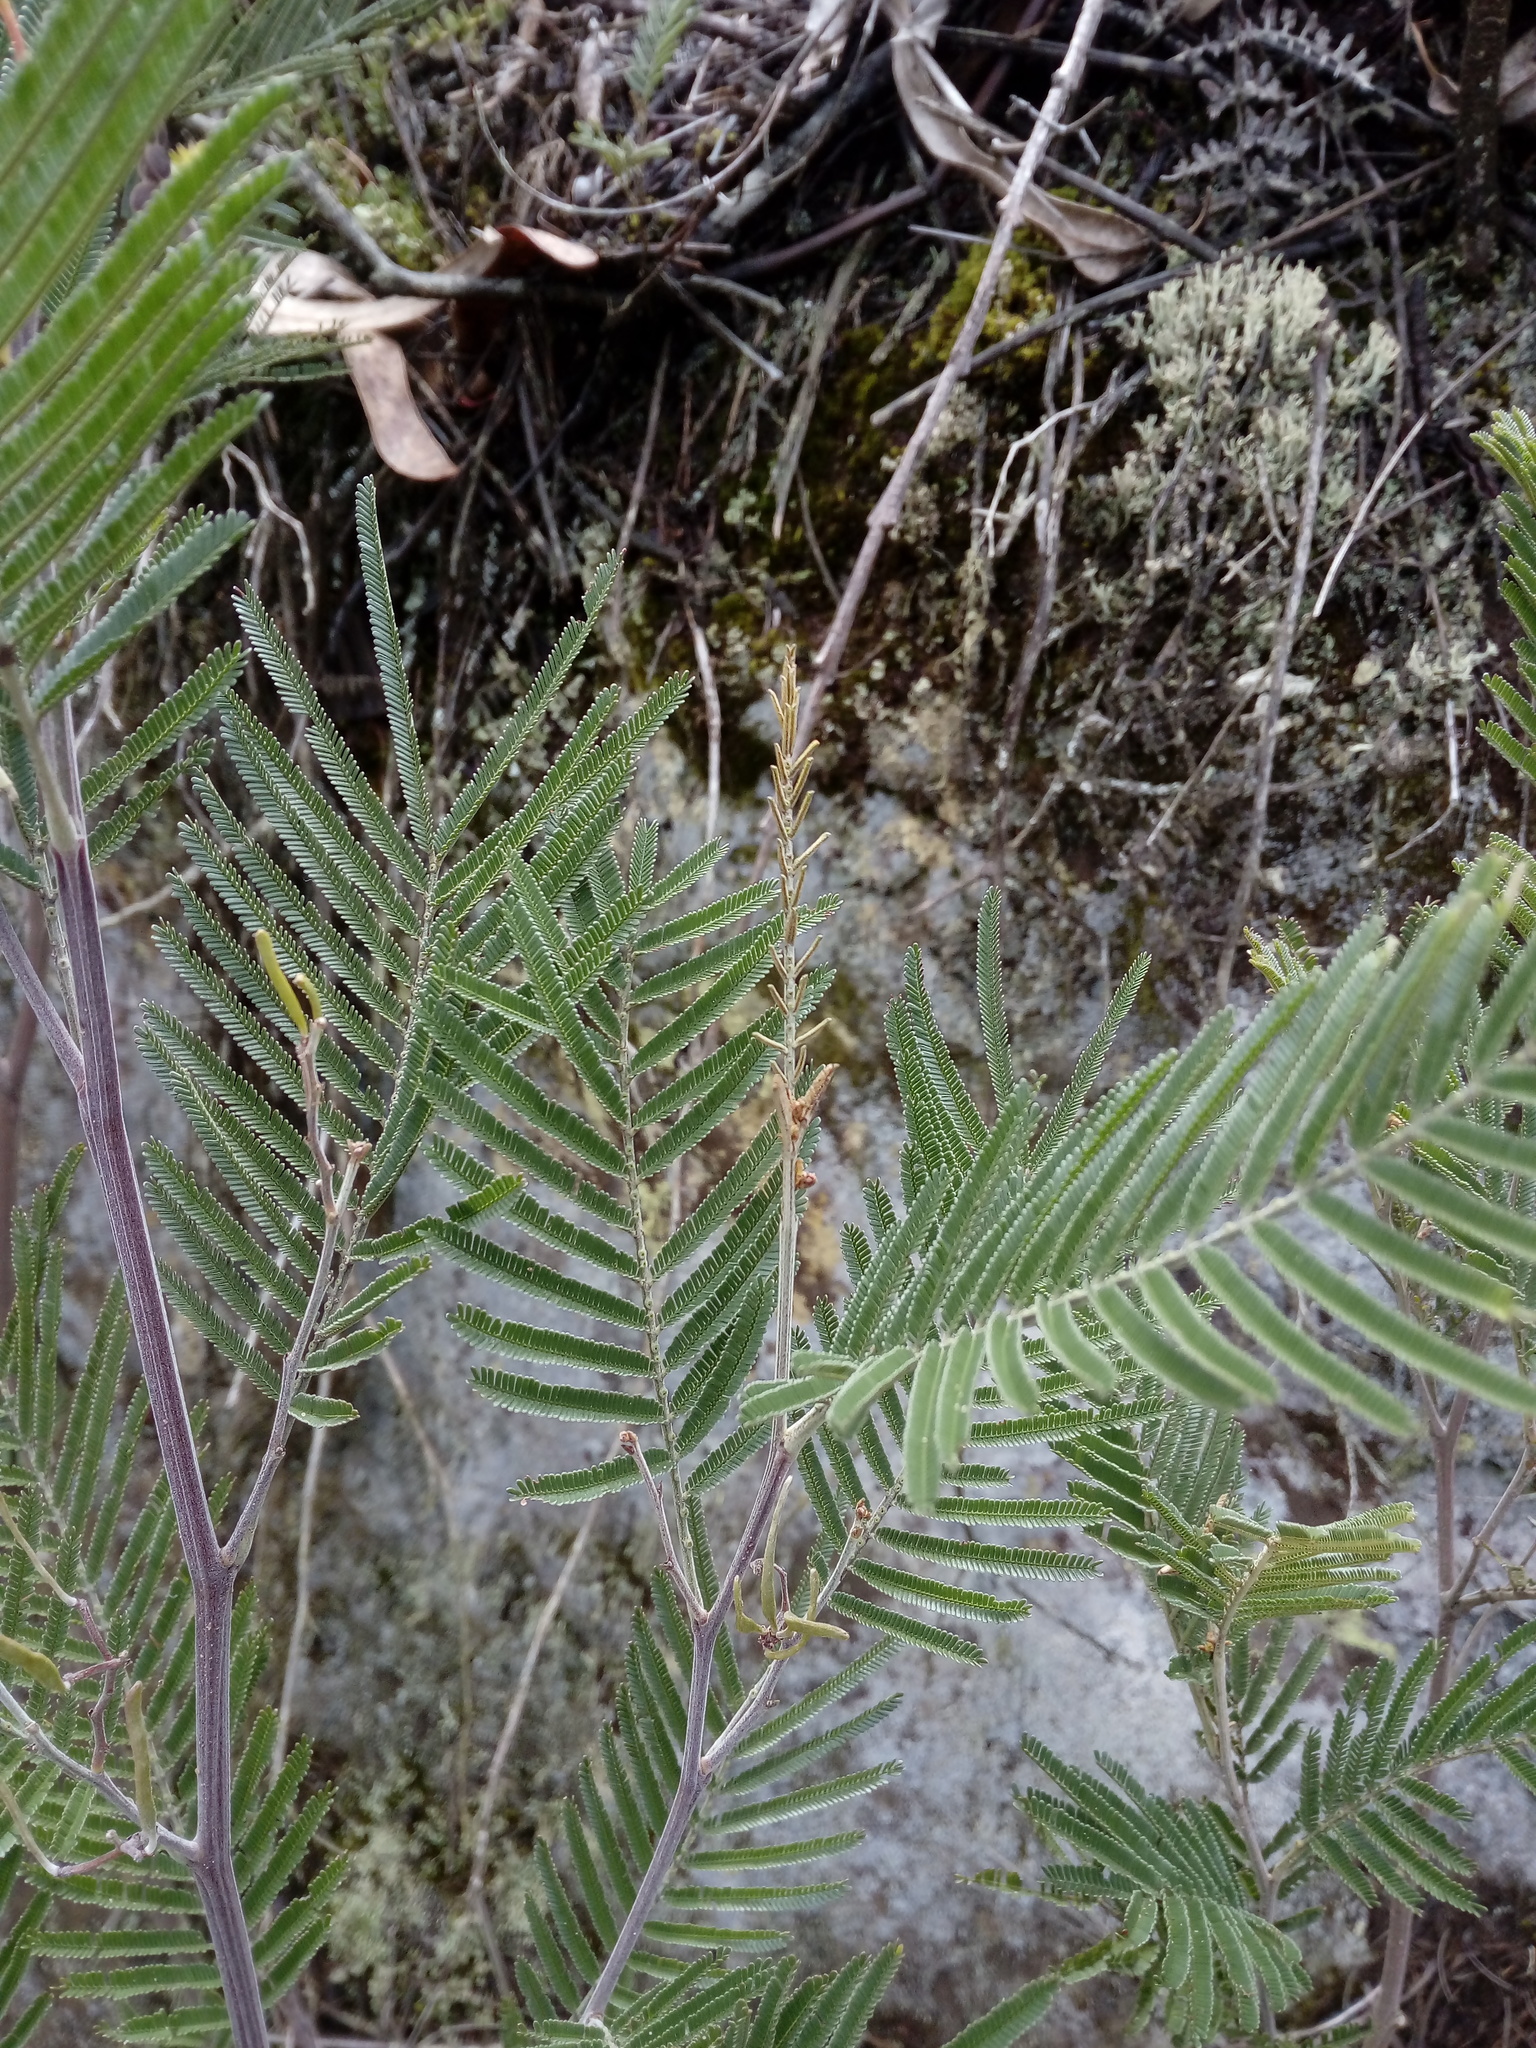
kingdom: Plantae
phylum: Tracheophyta
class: Magnoliopsida
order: Fabales
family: Fabaceae
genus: Acacia
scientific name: Acacia mearnsii
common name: Black wattle
